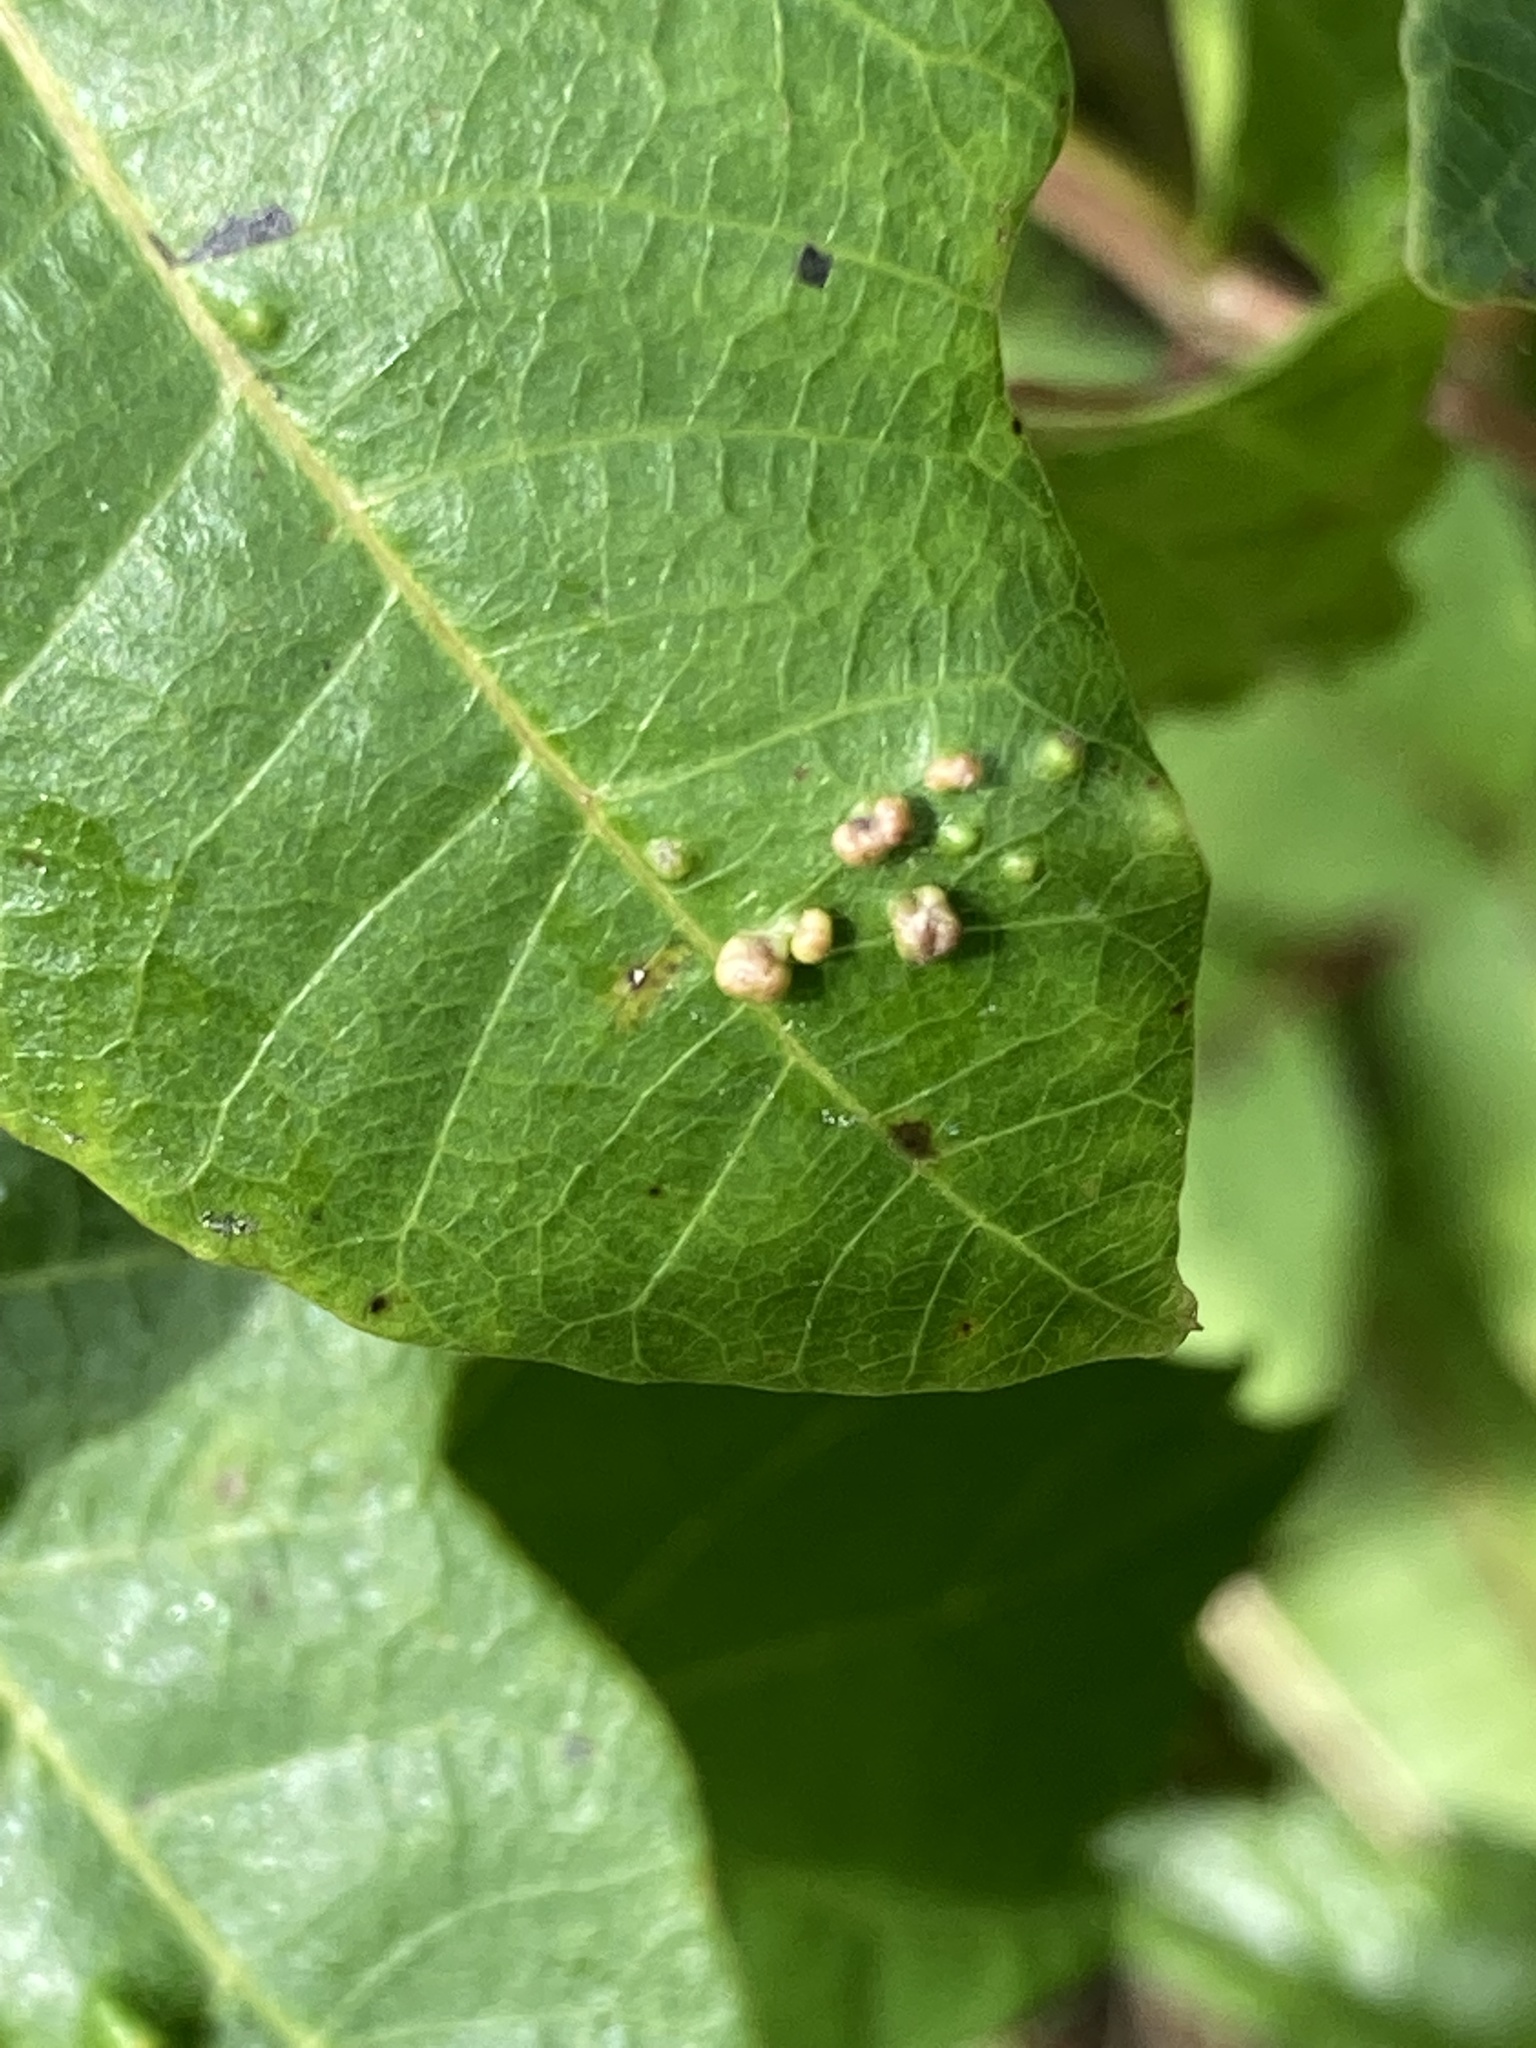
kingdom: Animalia
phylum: Arthropoda
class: Arachnida
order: Trombidiformes
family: Eriophyidae
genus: Aculops
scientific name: Aculops
